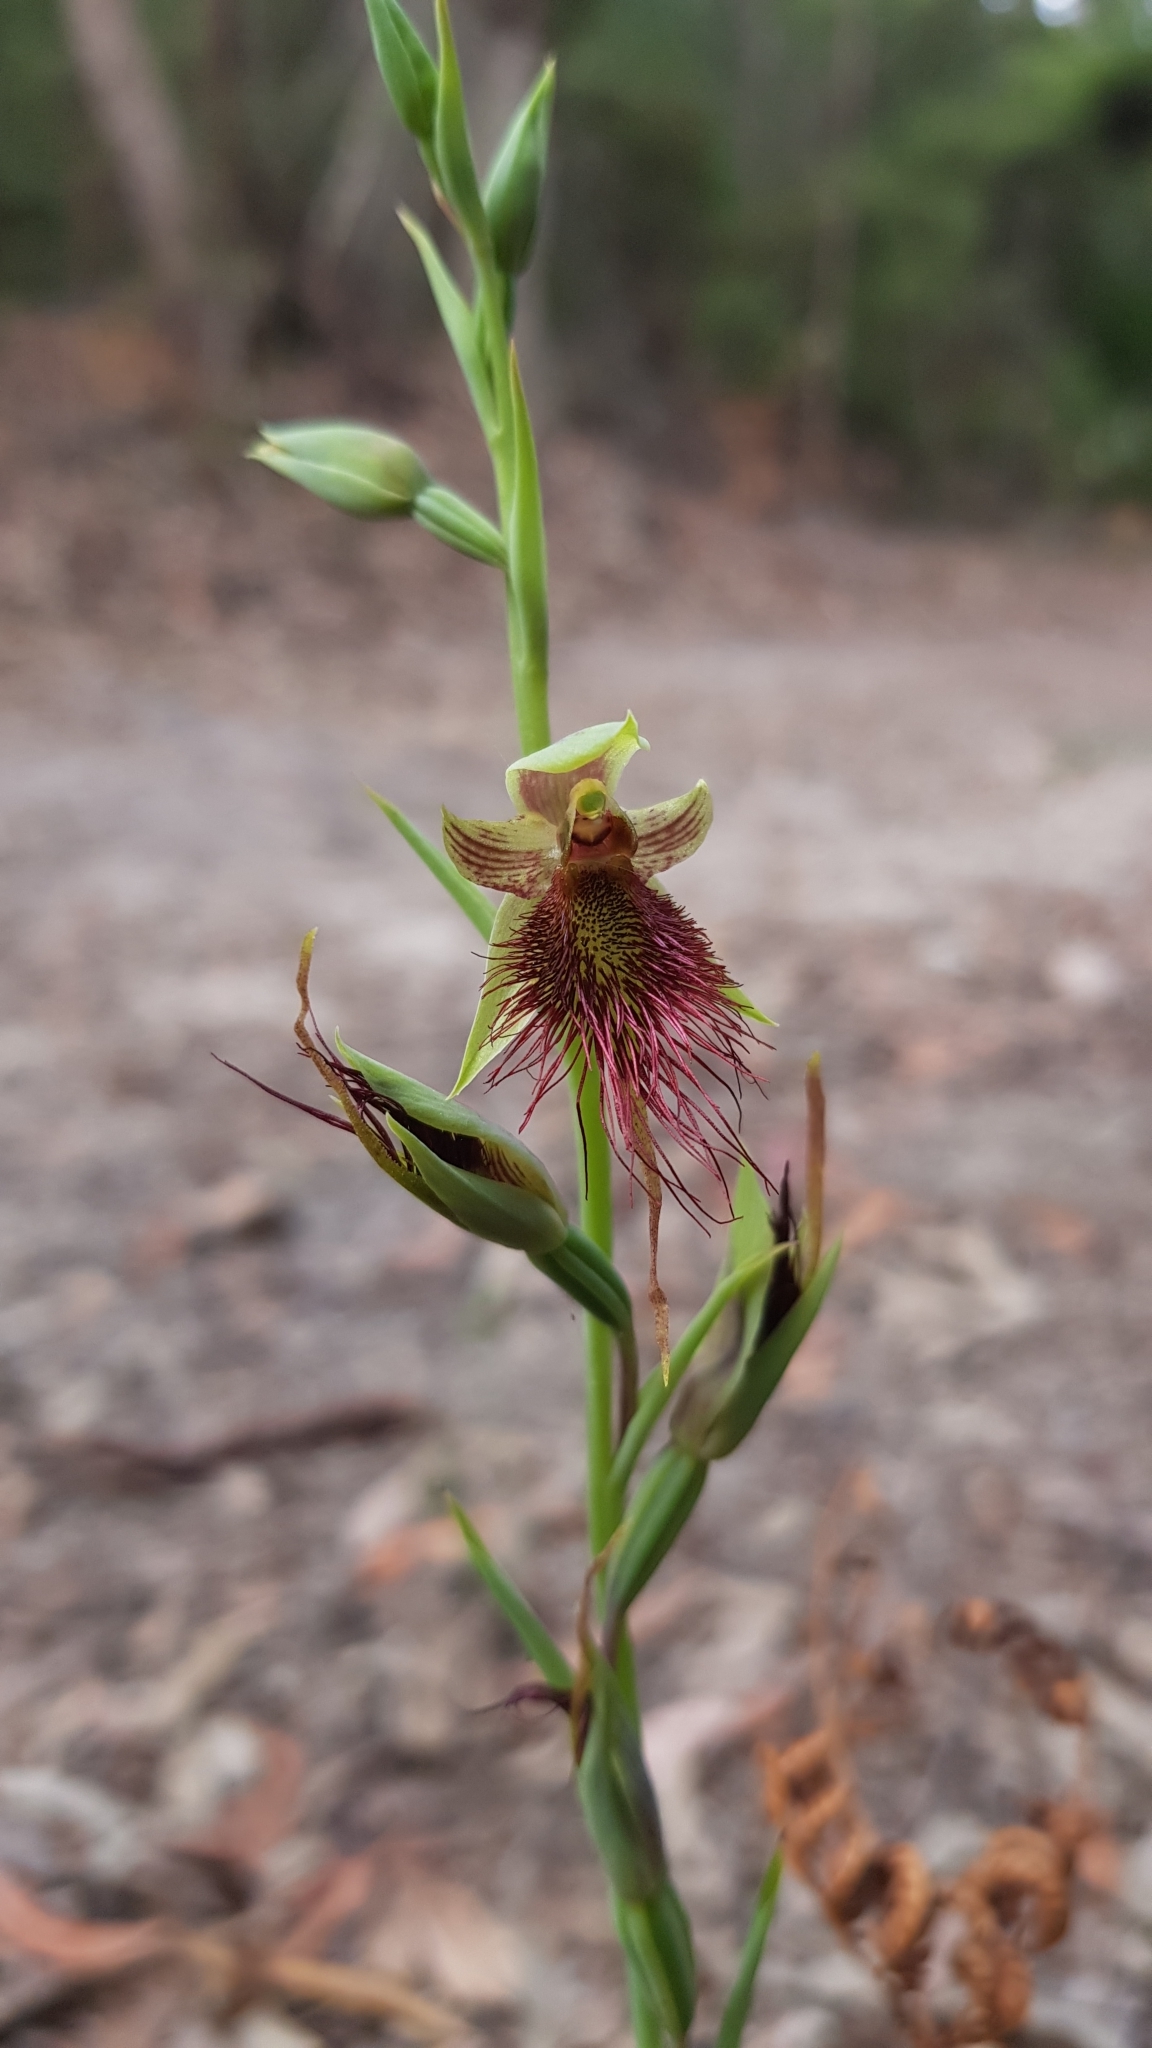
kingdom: Plantae
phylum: Tracheophyta
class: Liliopsida
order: Asparagales
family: Orchidaceae
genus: Calochilus
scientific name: Calochilus paludosus
